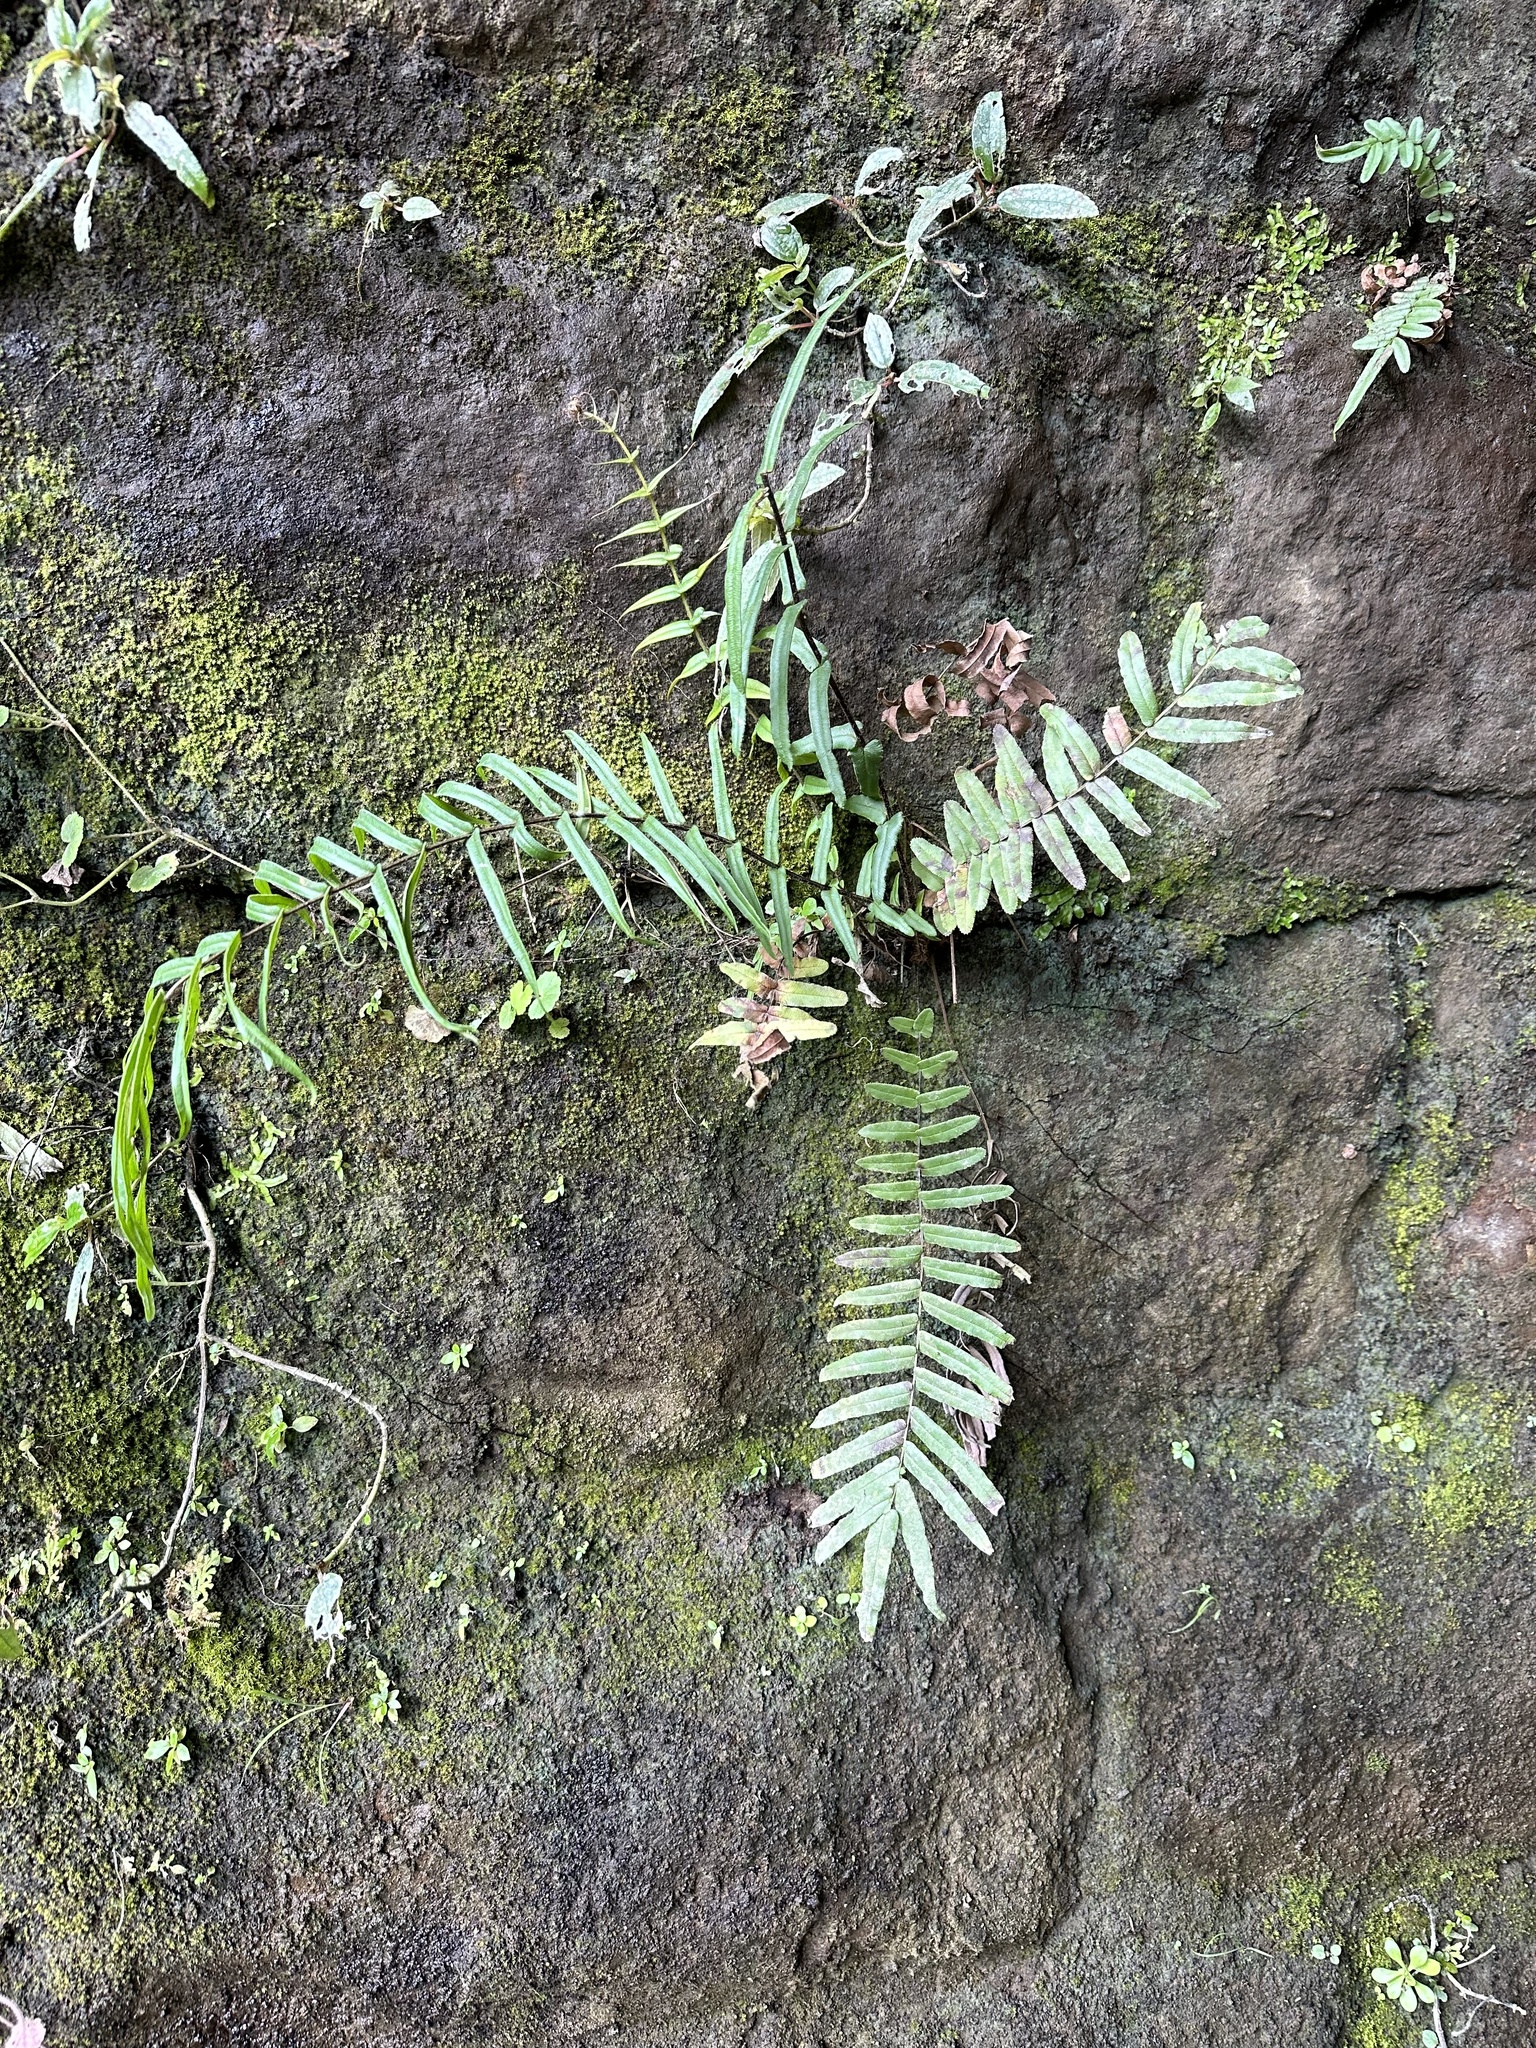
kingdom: Plantae
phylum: Tracheophyta
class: Polypodiopsida
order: Polypodiales
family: Pteridaceae
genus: Pteris
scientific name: Pteris vittata
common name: Ladder brake
